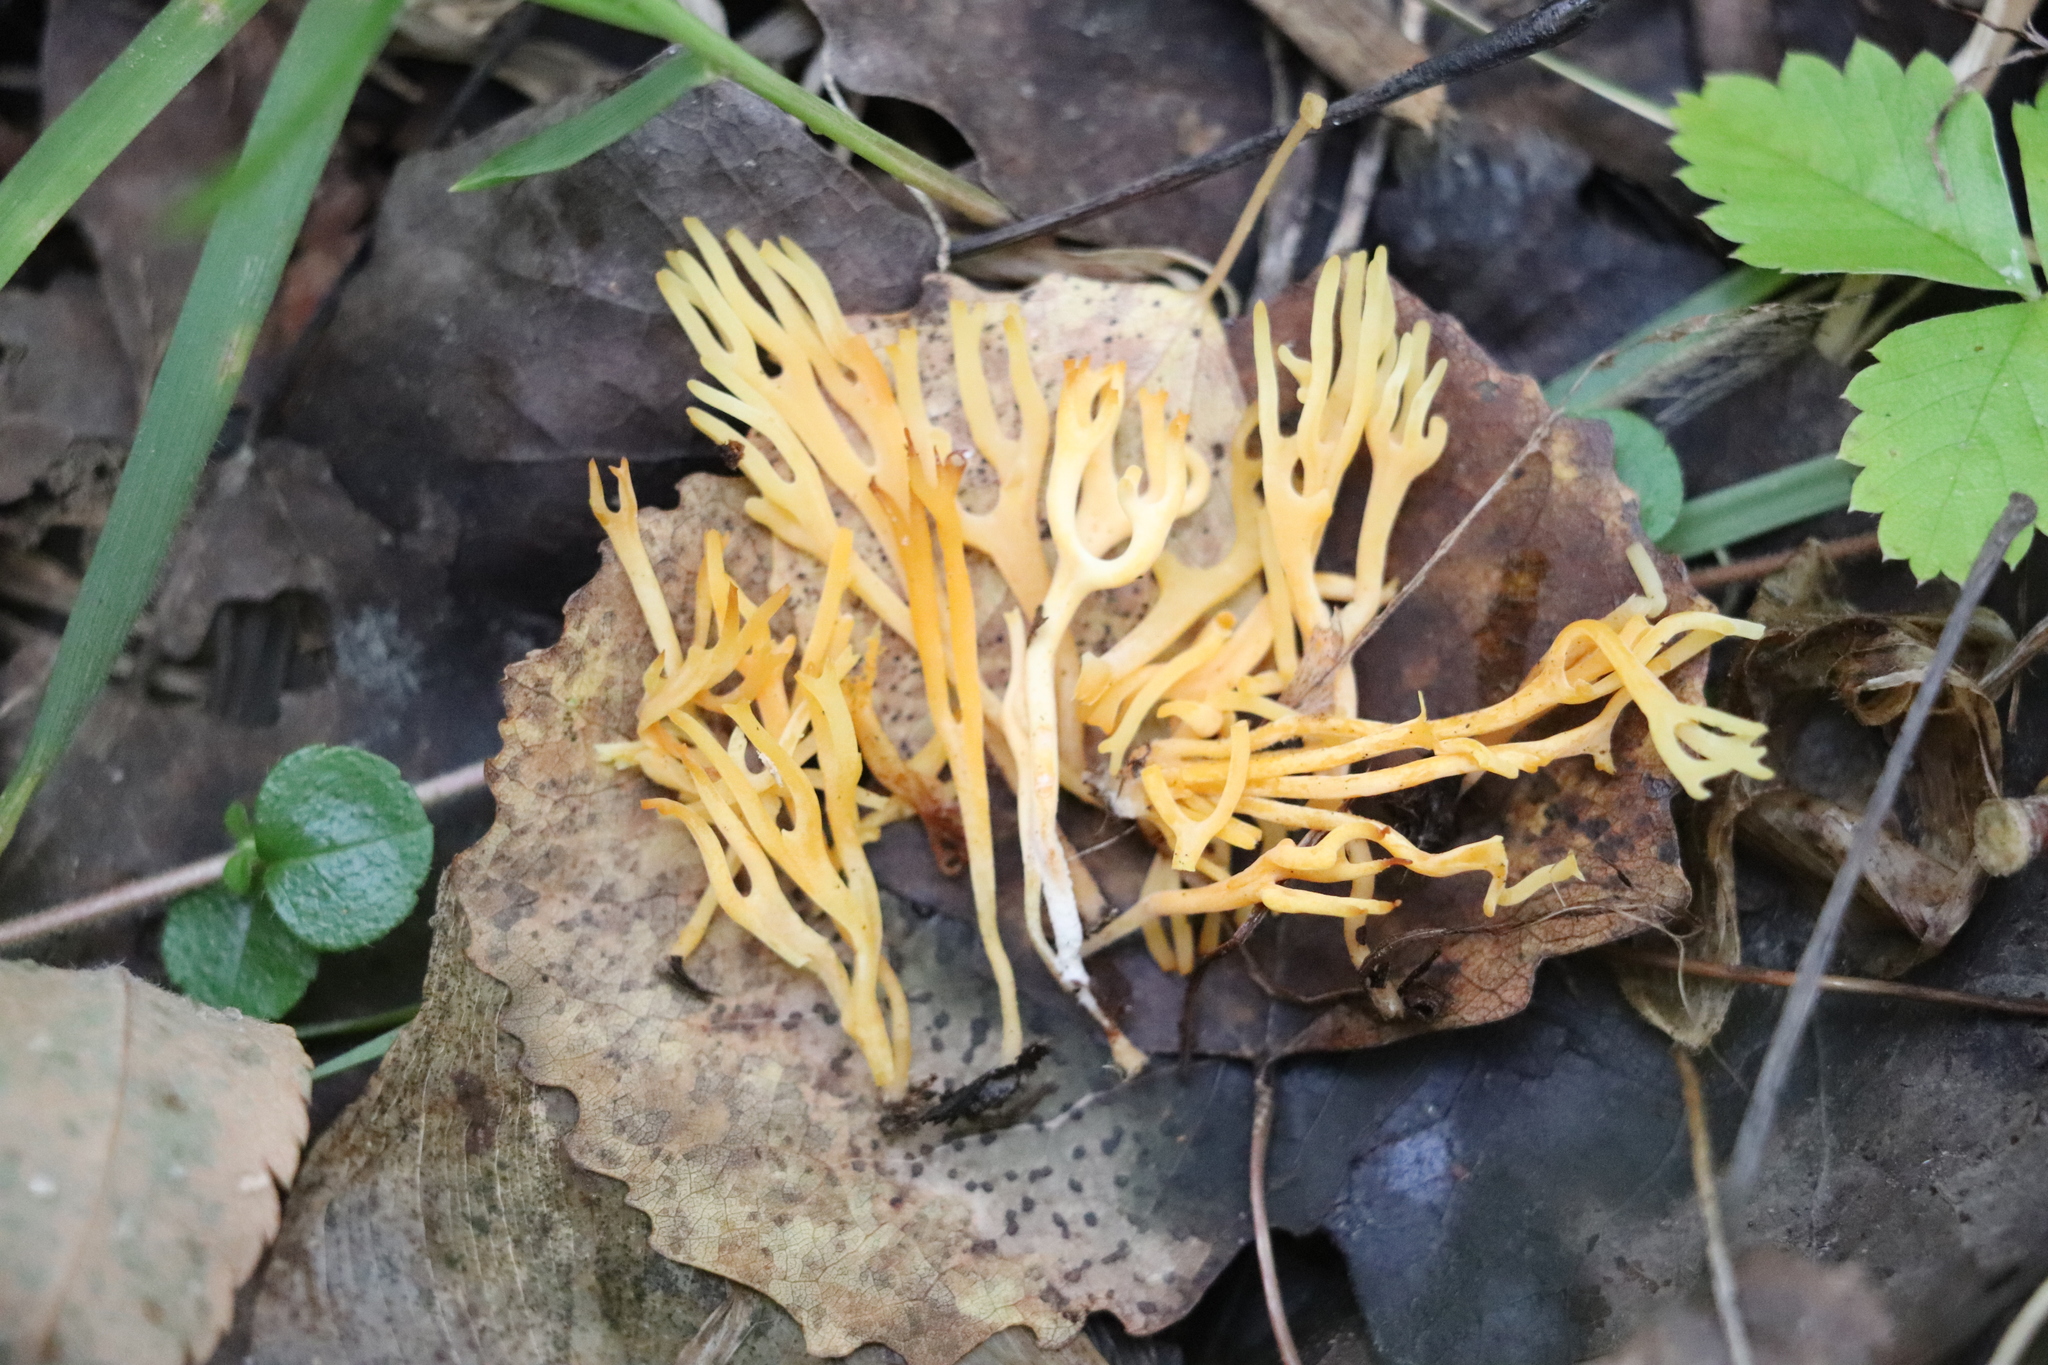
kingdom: Fungi
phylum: Basidiomycota
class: Agaricomycetes
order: Agaricales
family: Clavariaceae
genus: Ramariopsis
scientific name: Ramariopsis crocea
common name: Orange coral
